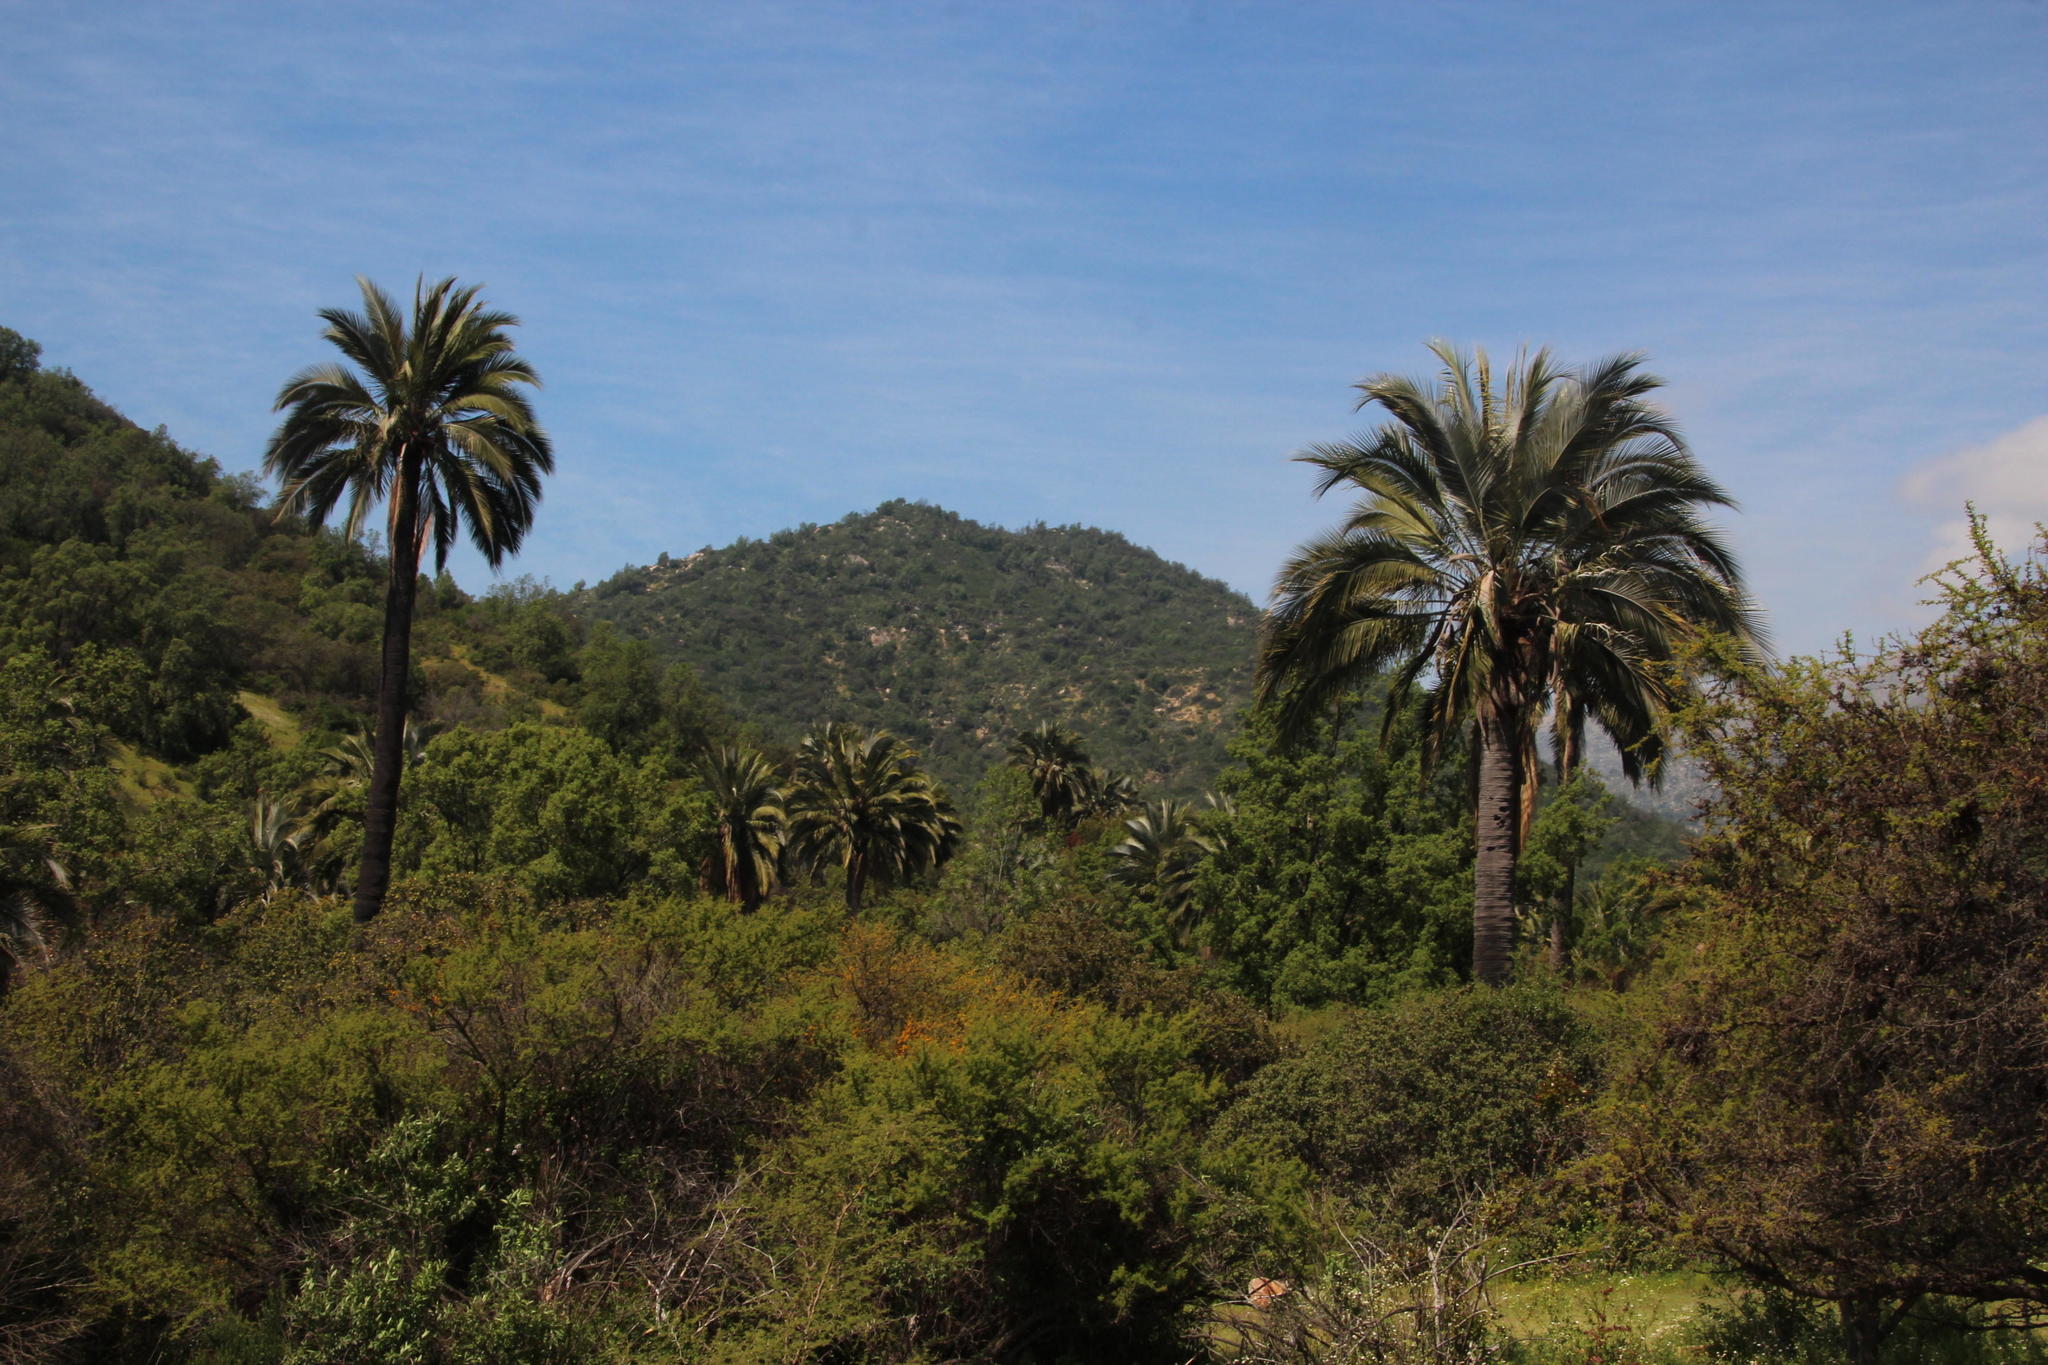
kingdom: Plantae
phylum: Tracheophyta
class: Liliopsida
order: Arecales
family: Arecaceae
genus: Jubaea
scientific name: Jubaea chilensis
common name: Coquito palm
